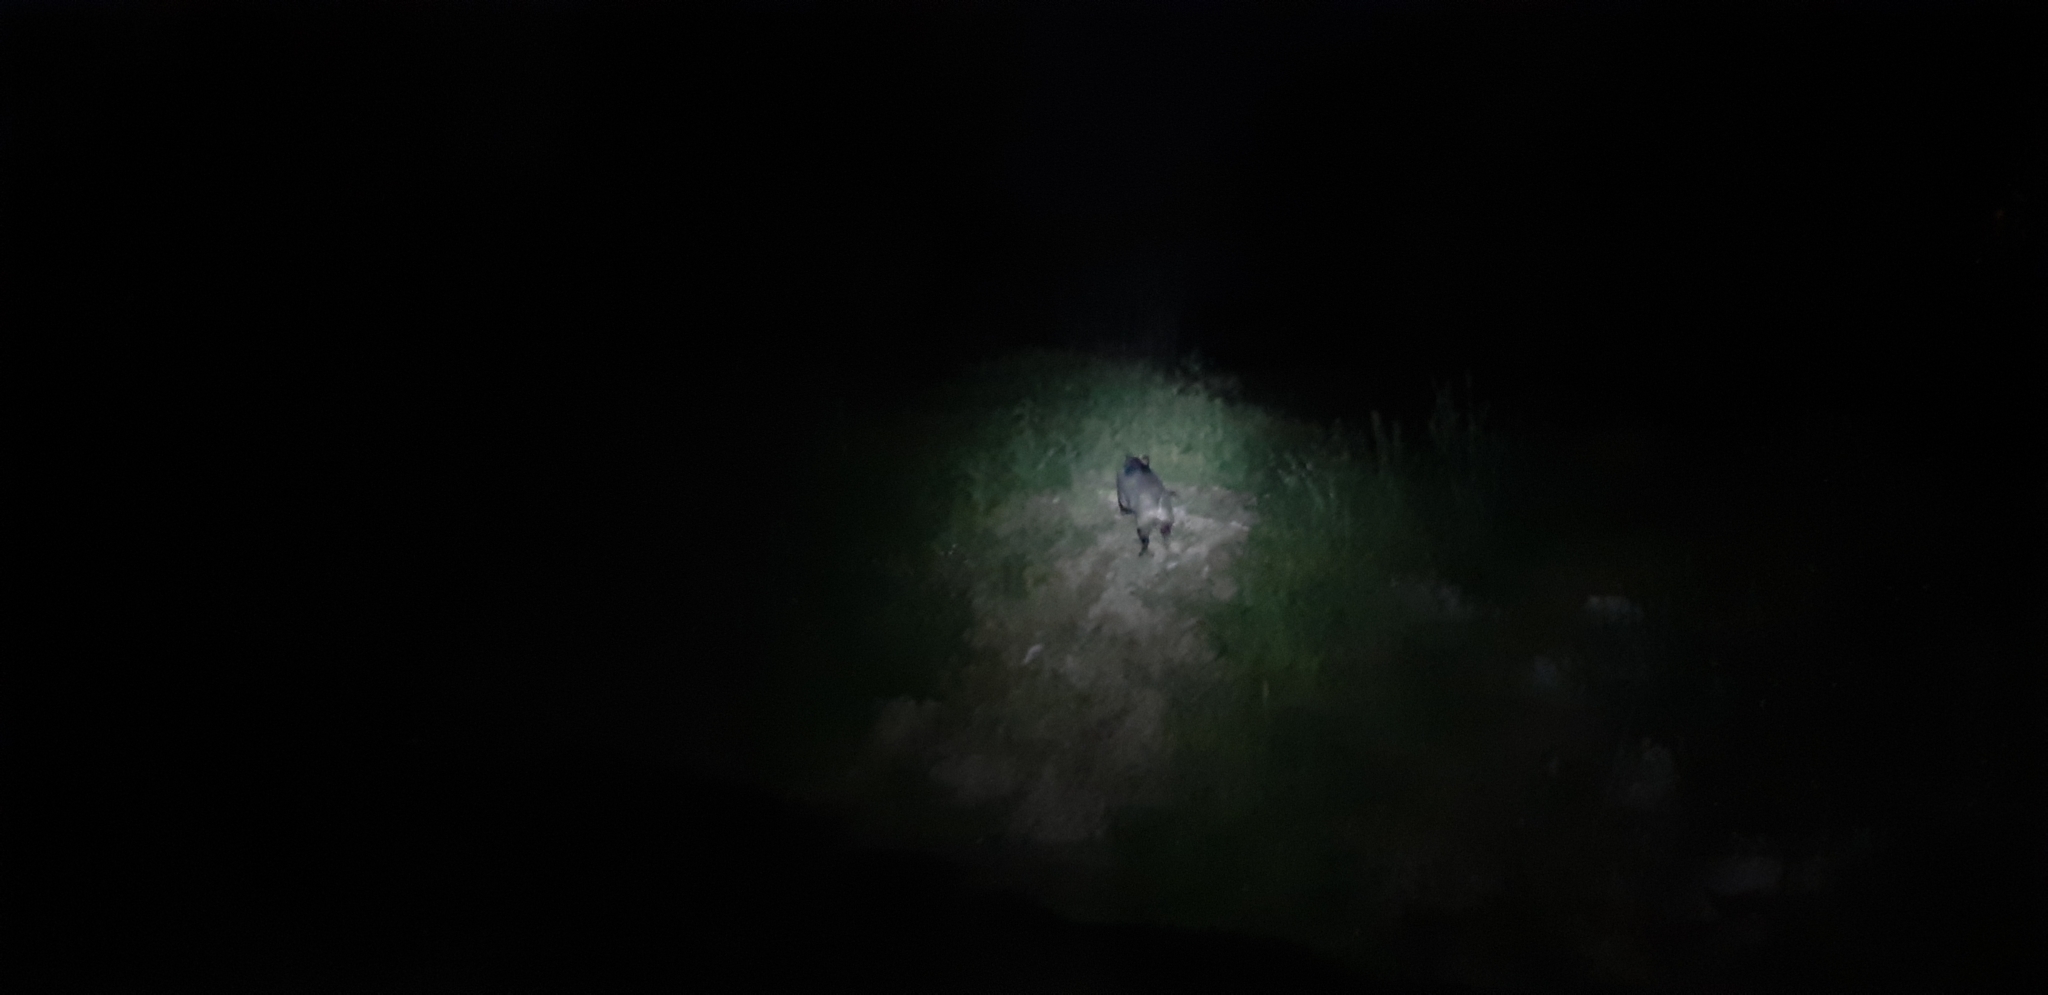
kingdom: Animalia
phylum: Chordata
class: Mammalia
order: Artiodactyla
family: Suidae
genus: Sus
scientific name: Sus scrofa
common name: Wild boar
